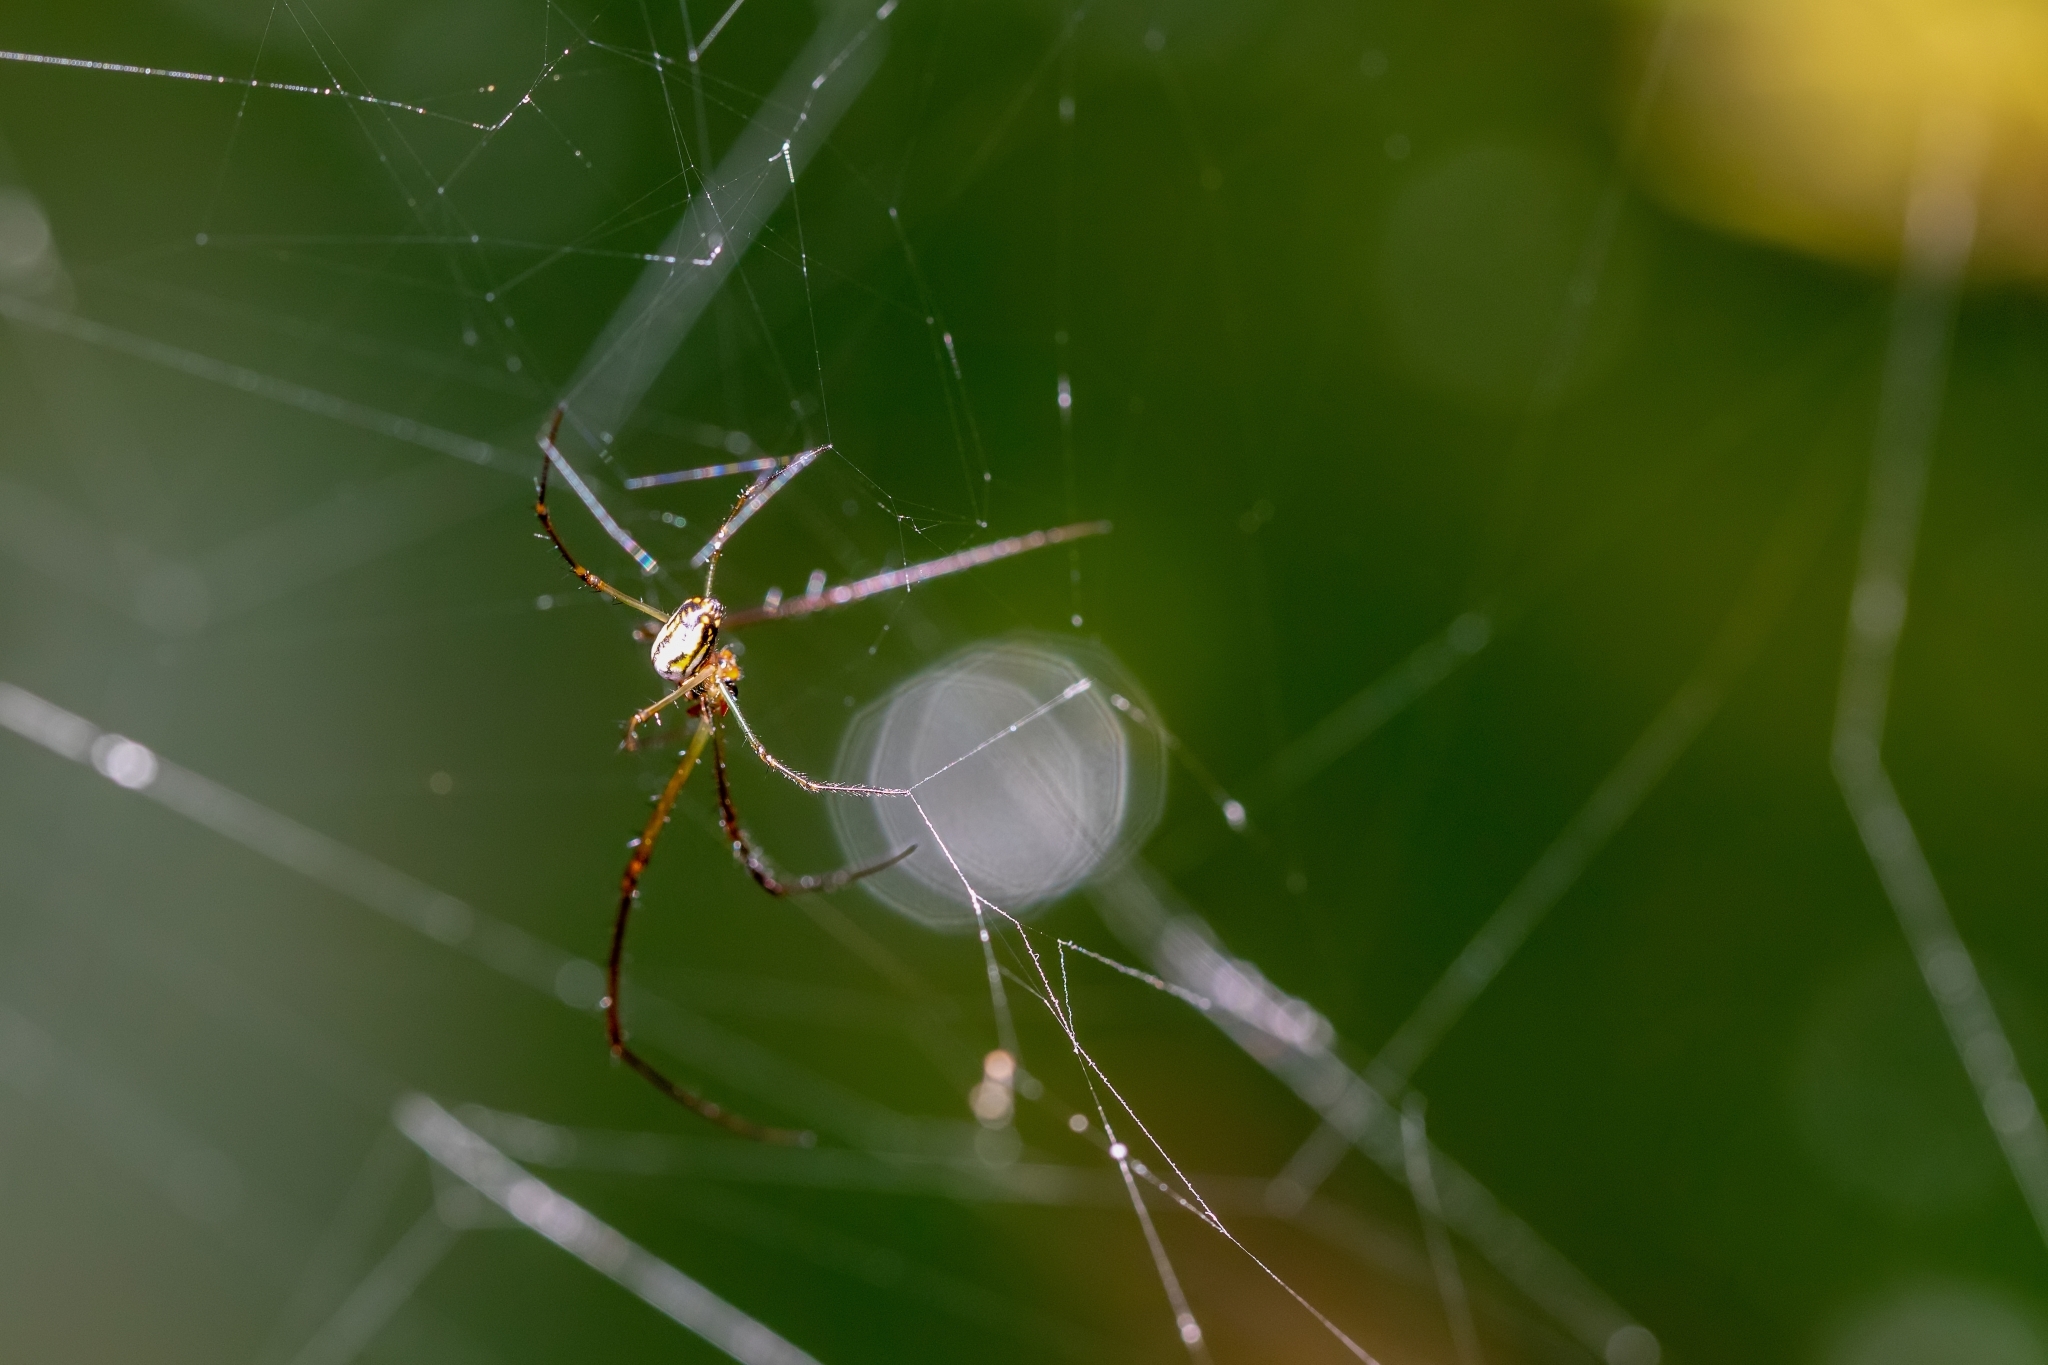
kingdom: Animalia
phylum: Arthropoda
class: Arachnida
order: Araneae
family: Tetragnathidae
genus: Leucauge
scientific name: Leucauge argyra
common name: Longjawed orb weavers
